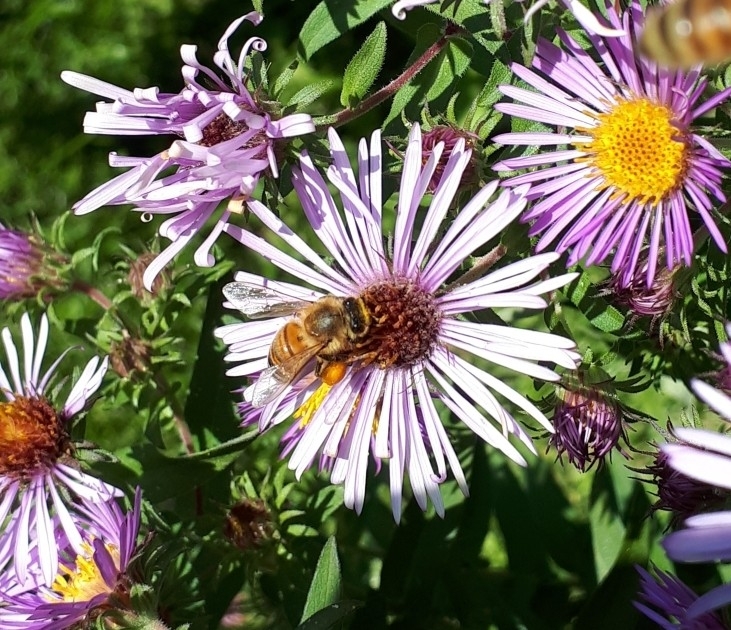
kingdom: Animalia
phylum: Arthropoda
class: Insecta
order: Hymenoptera
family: Apidae
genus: Apis
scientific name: Apis mellifera
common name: Honey bee
